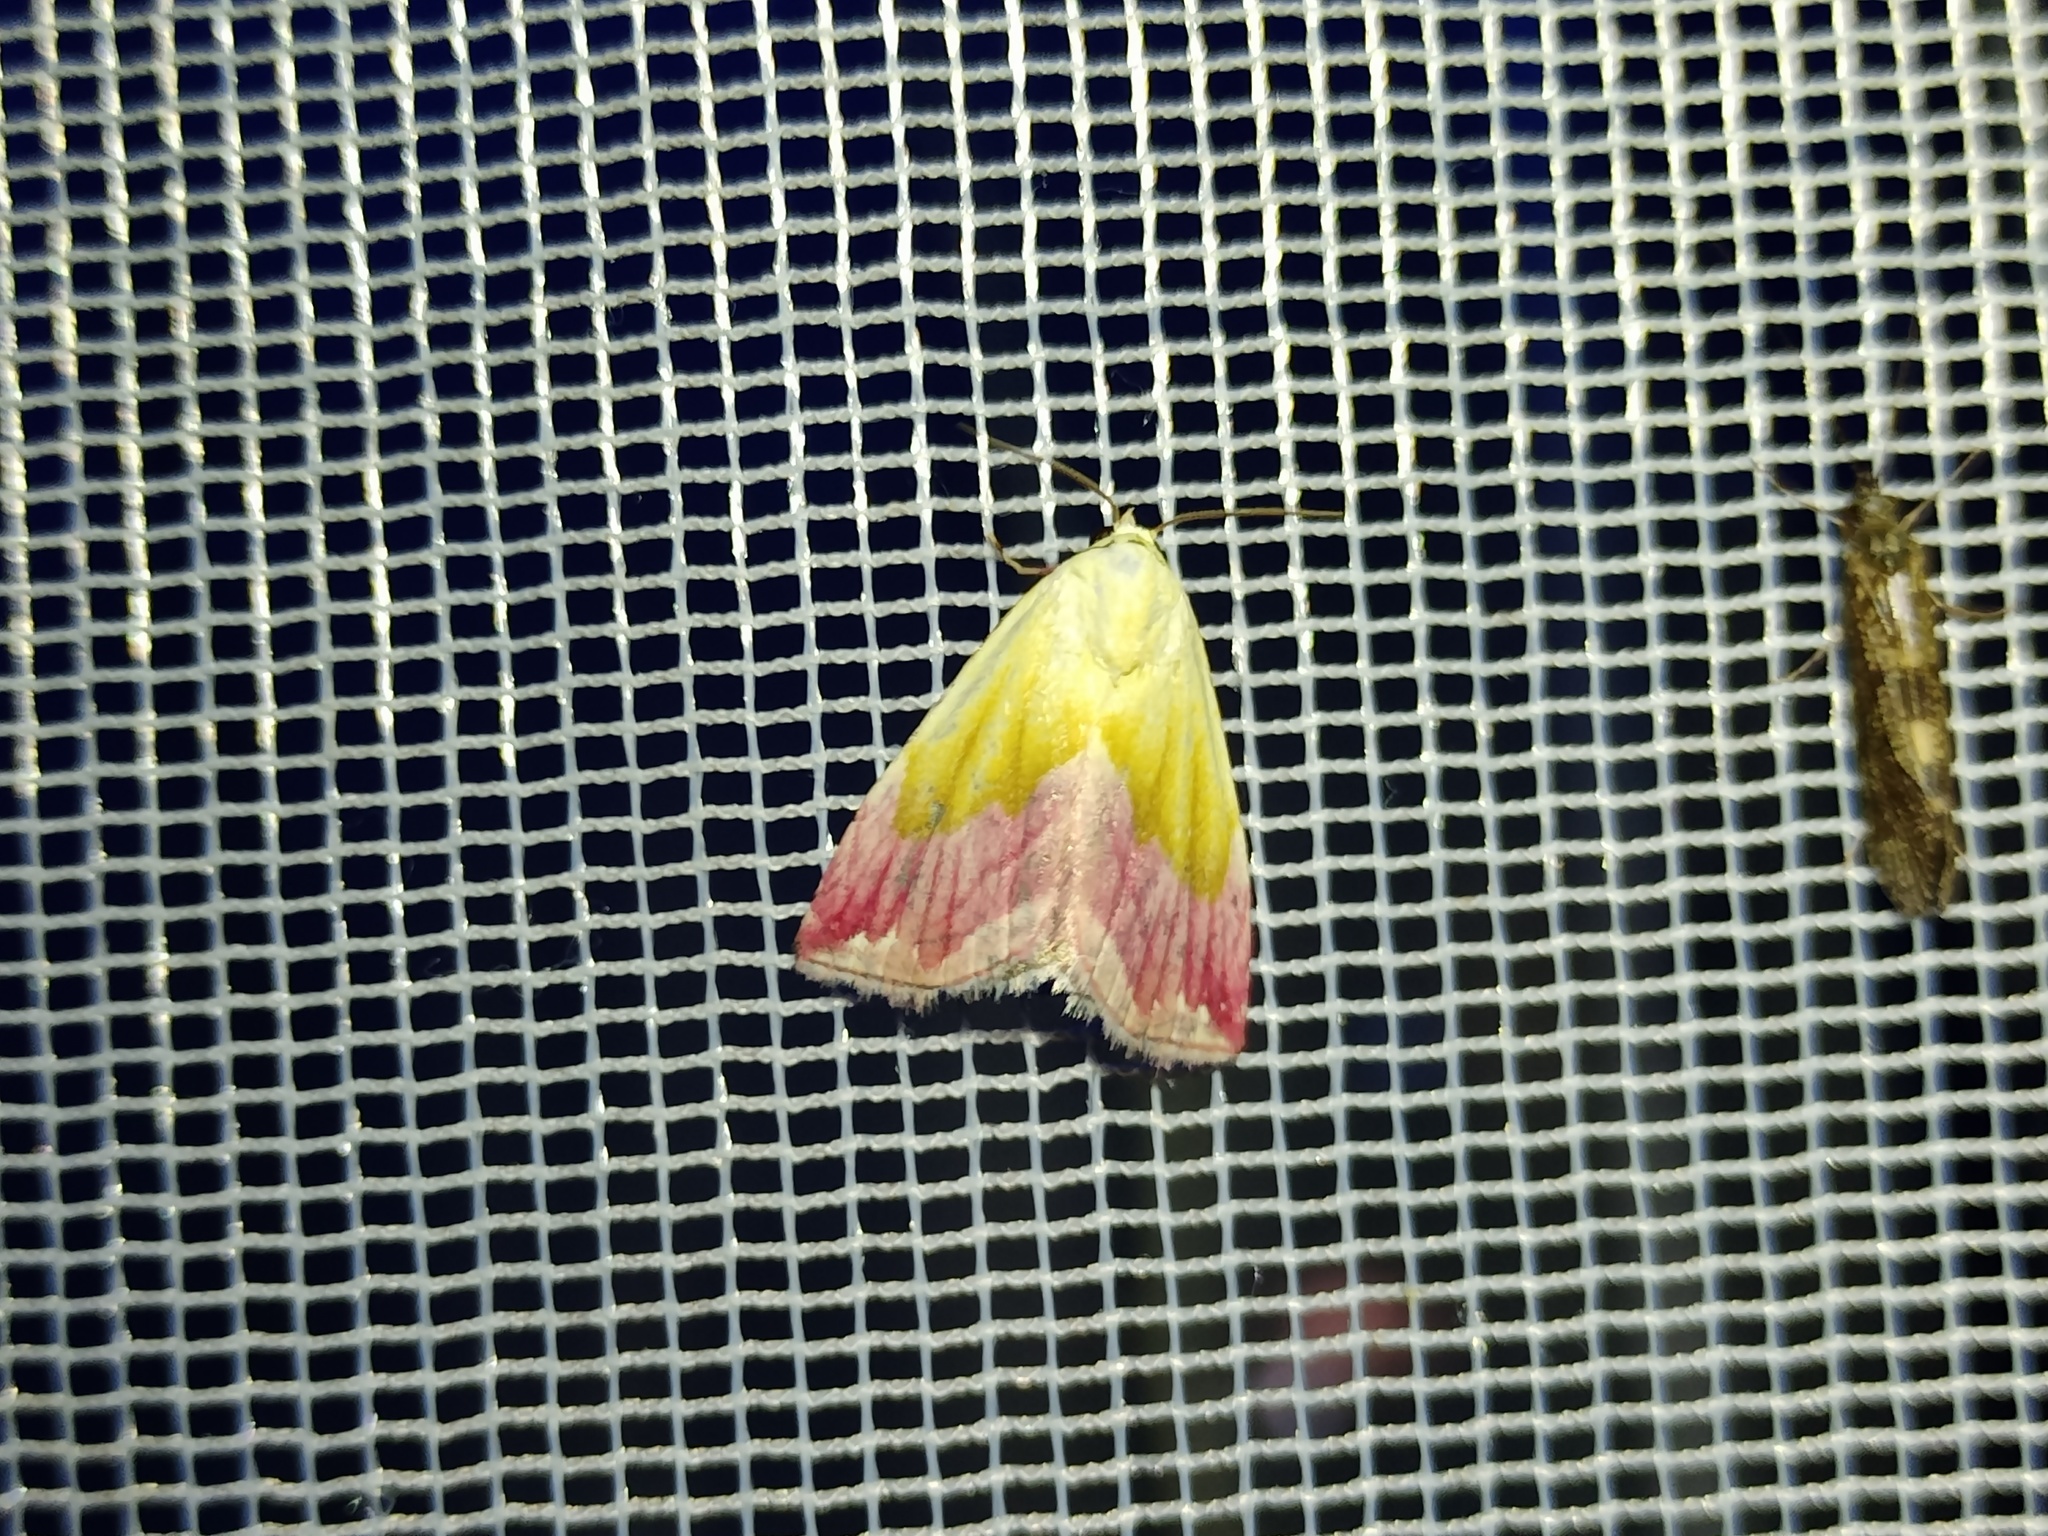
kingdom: Animalia
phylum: Arthropoda
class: Insecta
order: Lepidoptera
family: Noctuidae
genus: Eublemma
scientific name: Eublemma purpurina
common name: Beautiful marbled
